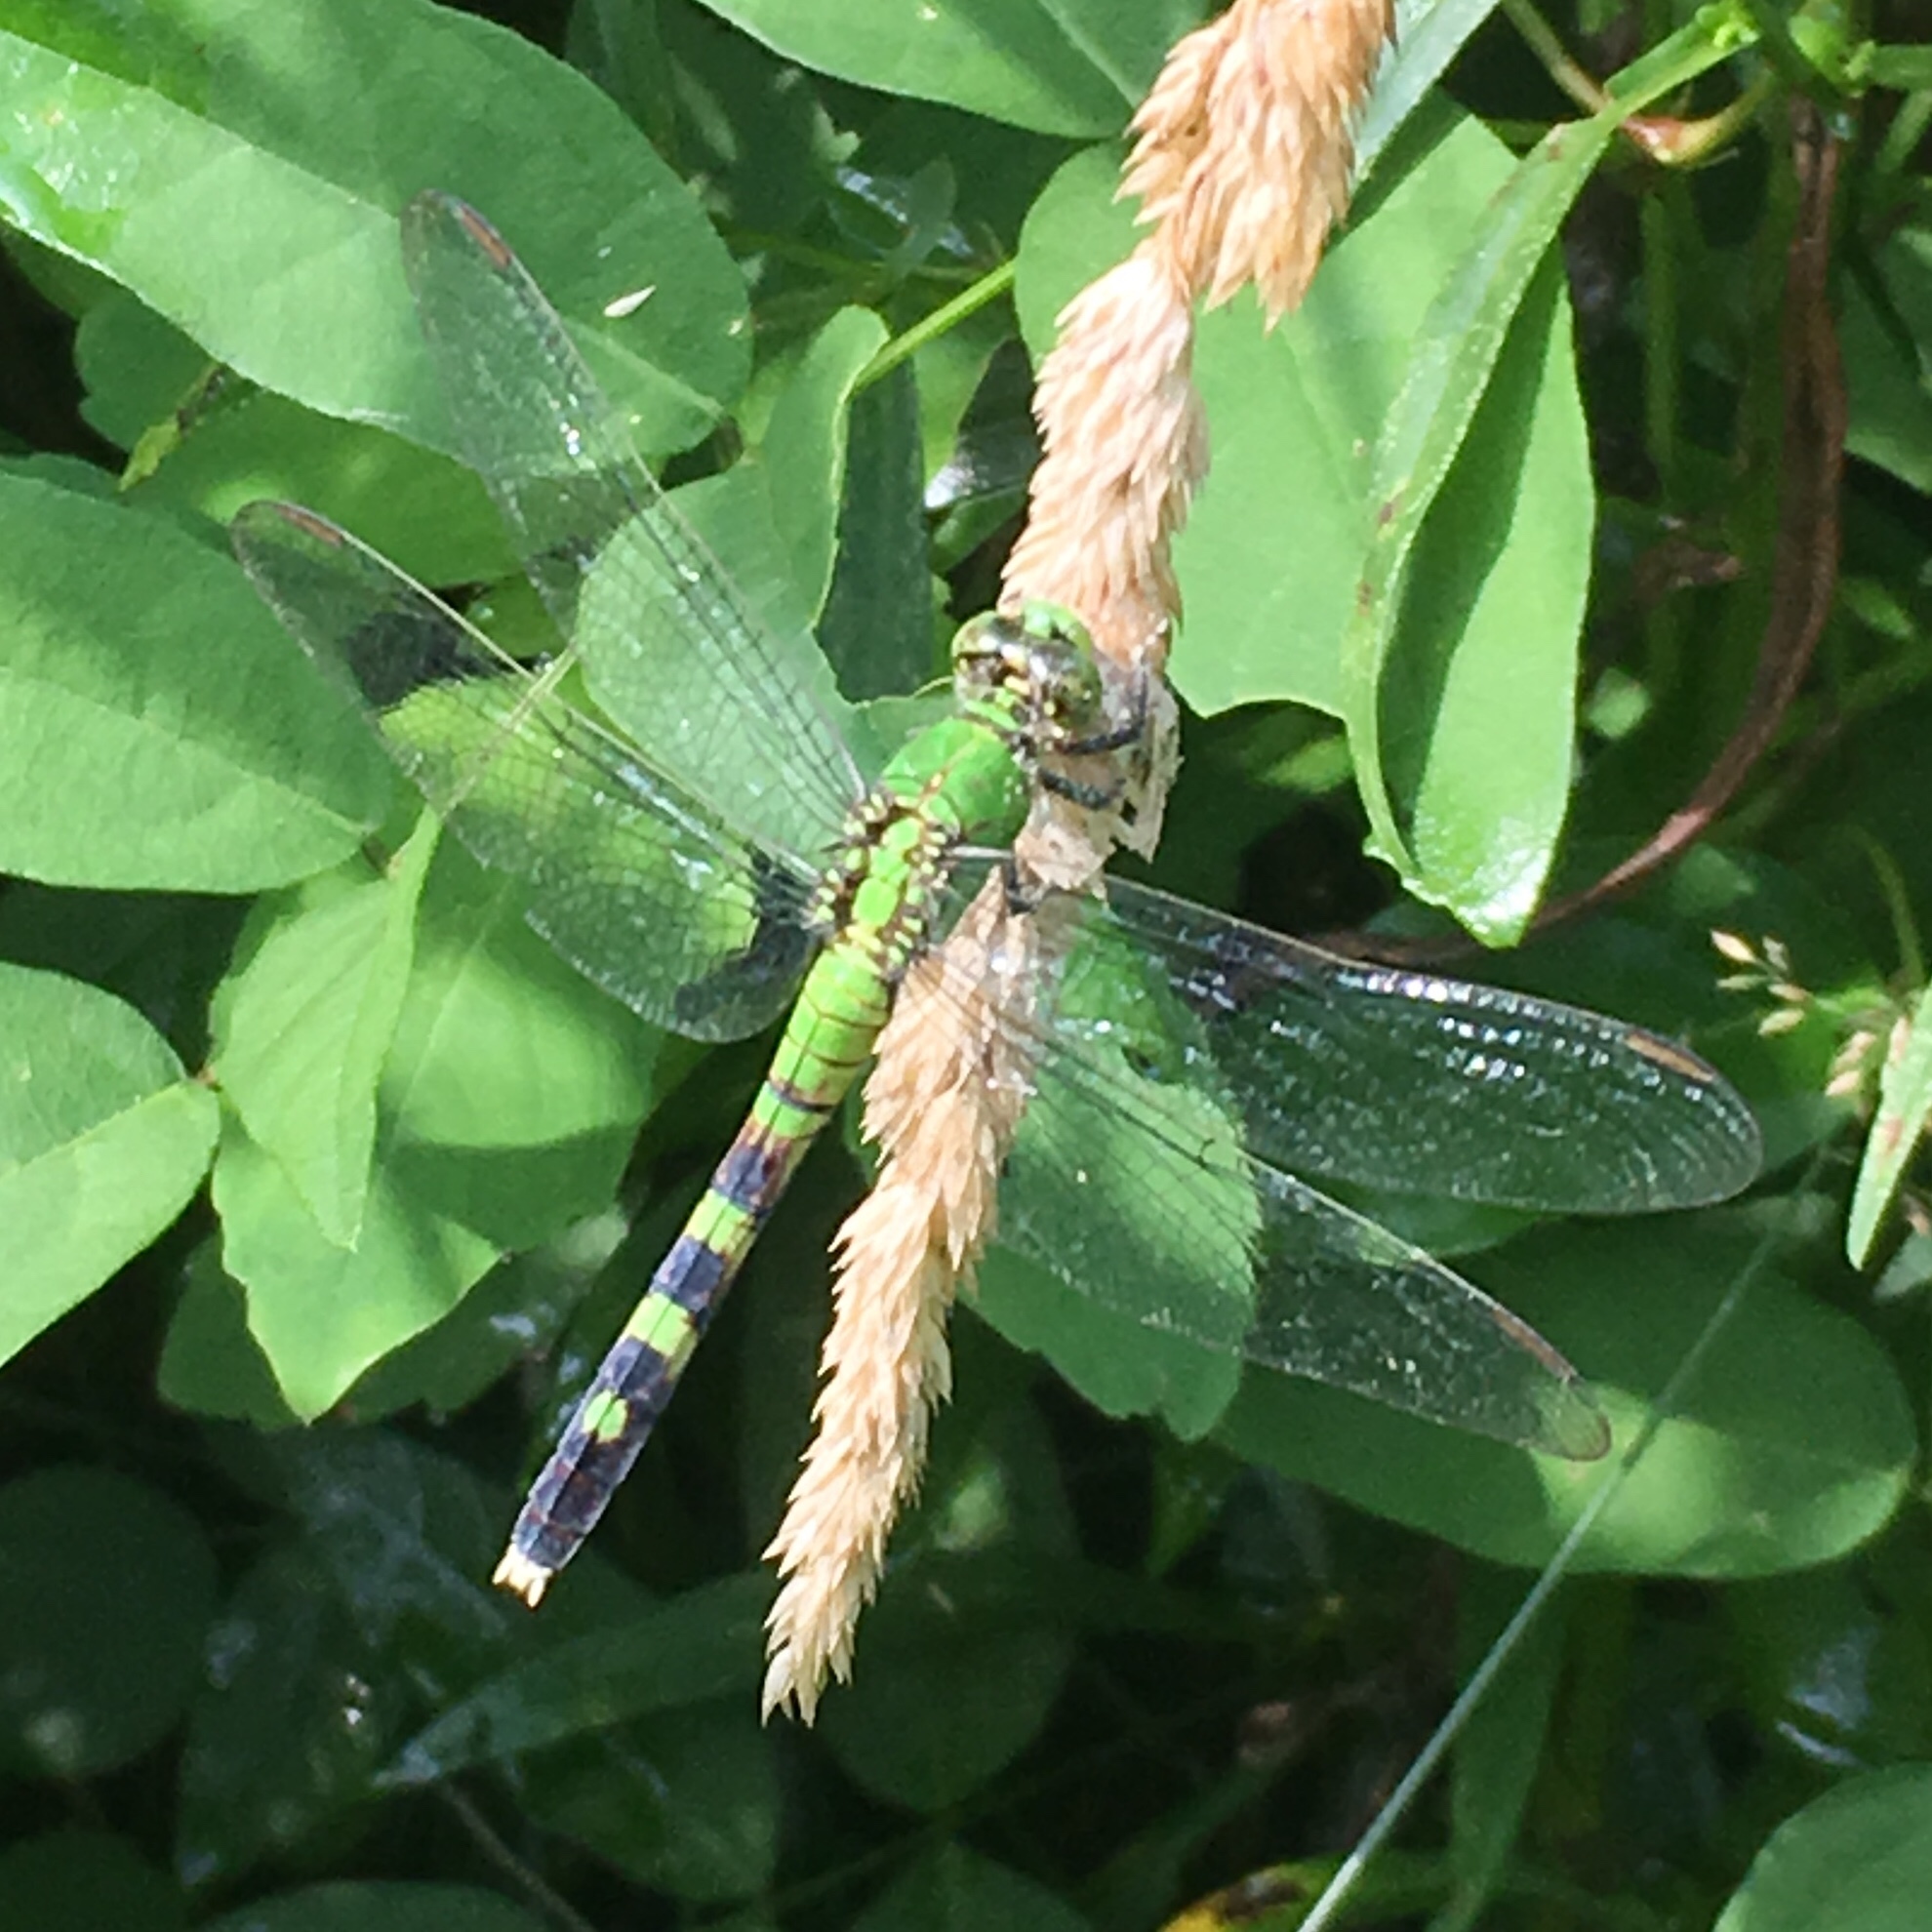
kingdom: Animalia
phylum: Arthropoda
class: Insecta
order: Odonata
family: Libellulidae
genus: Erythemis
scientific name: Erythemis simplicicollis
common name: Eastern pondhawk
